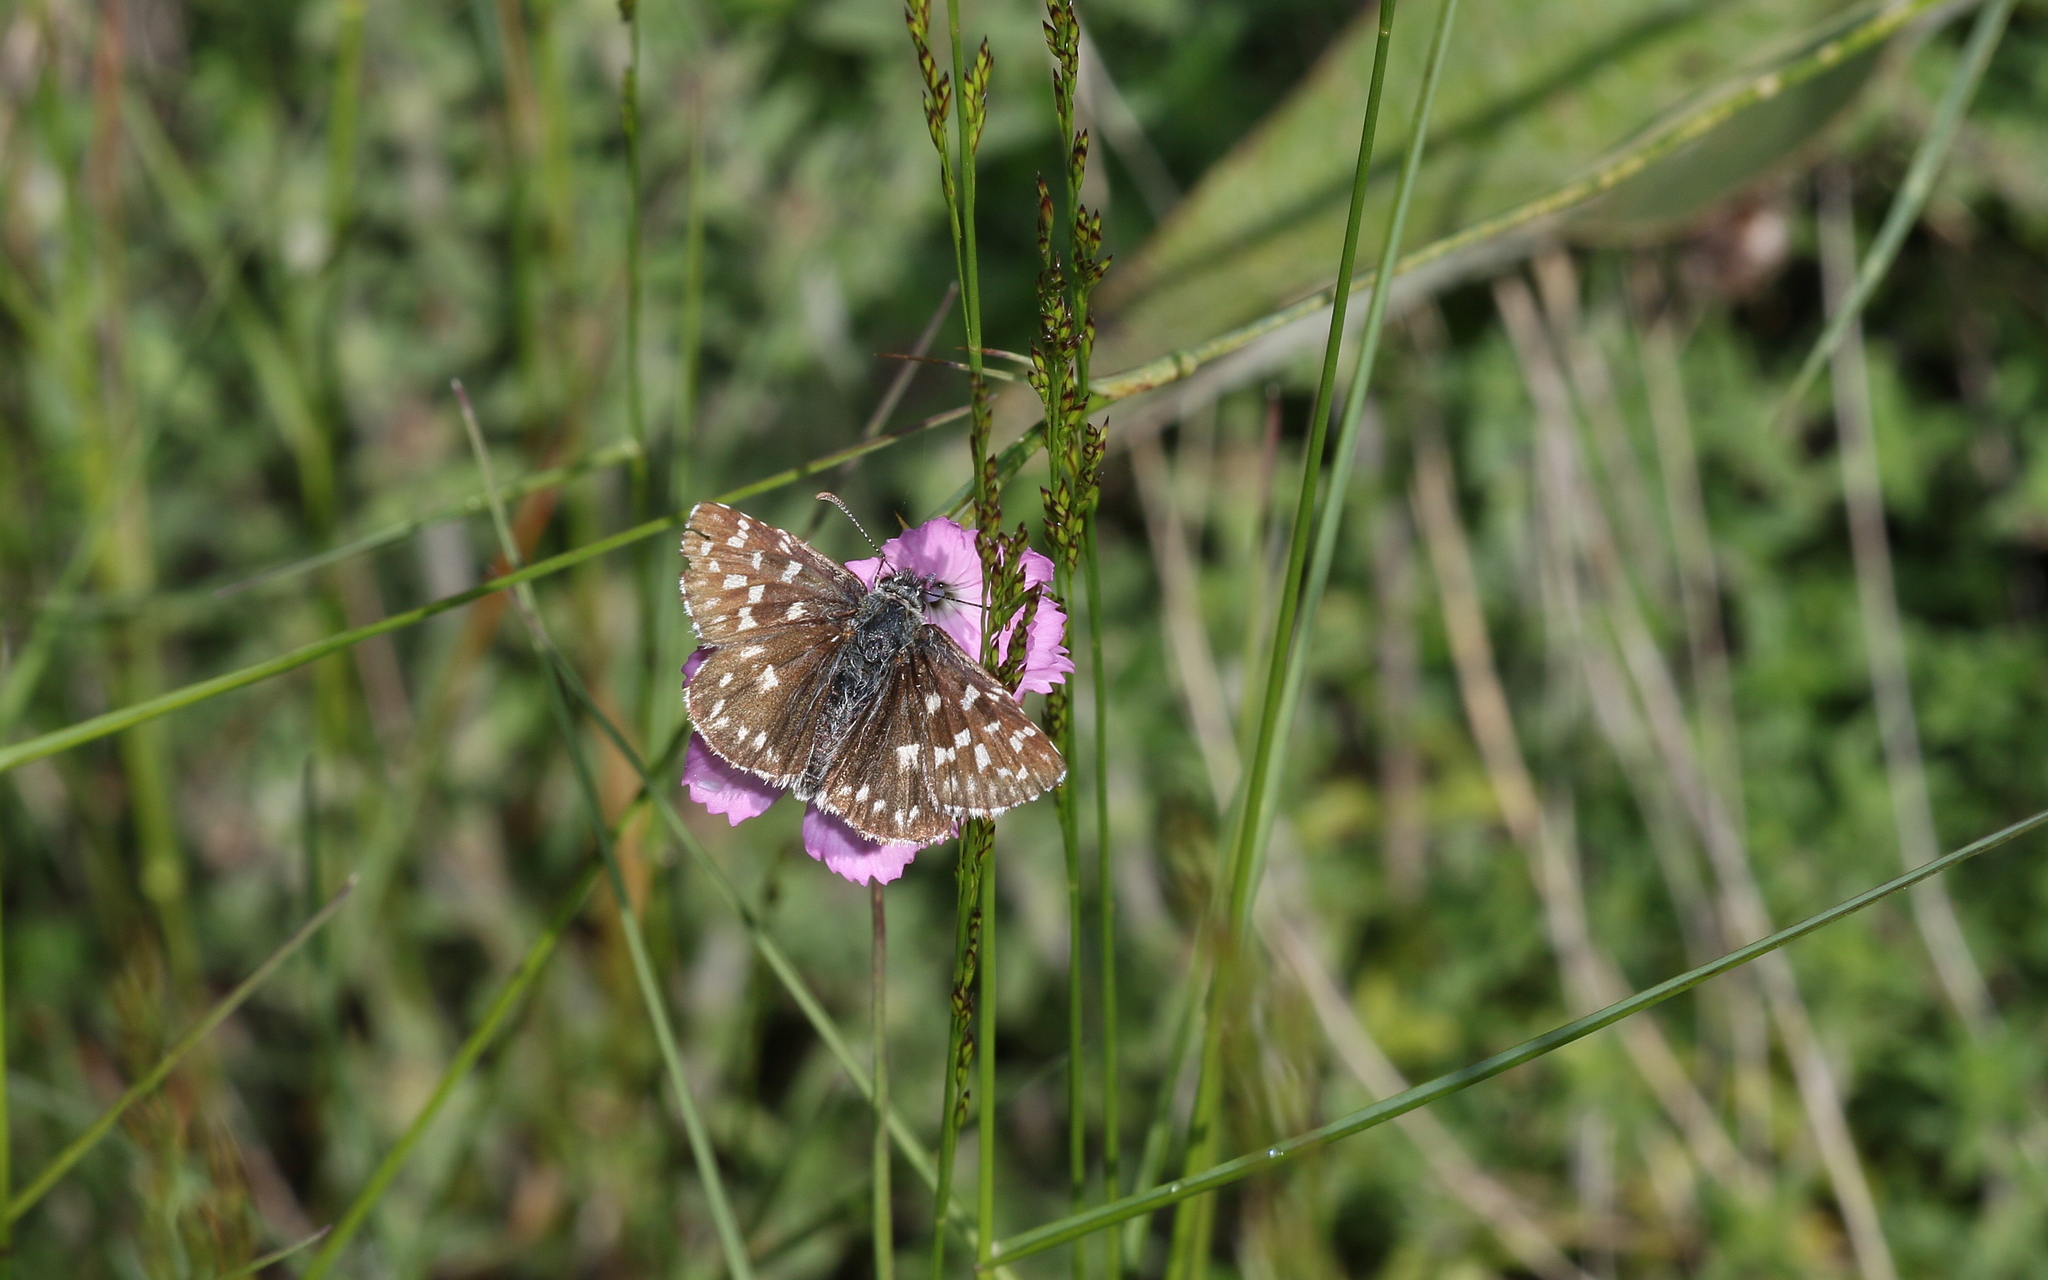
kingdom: Animalia
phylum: Arthropoda
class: Insecta
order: Lepidoptera
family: Hesperiidae
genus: Pyrgus
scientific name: Pyrgus malvae
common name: Grizzled skipper
